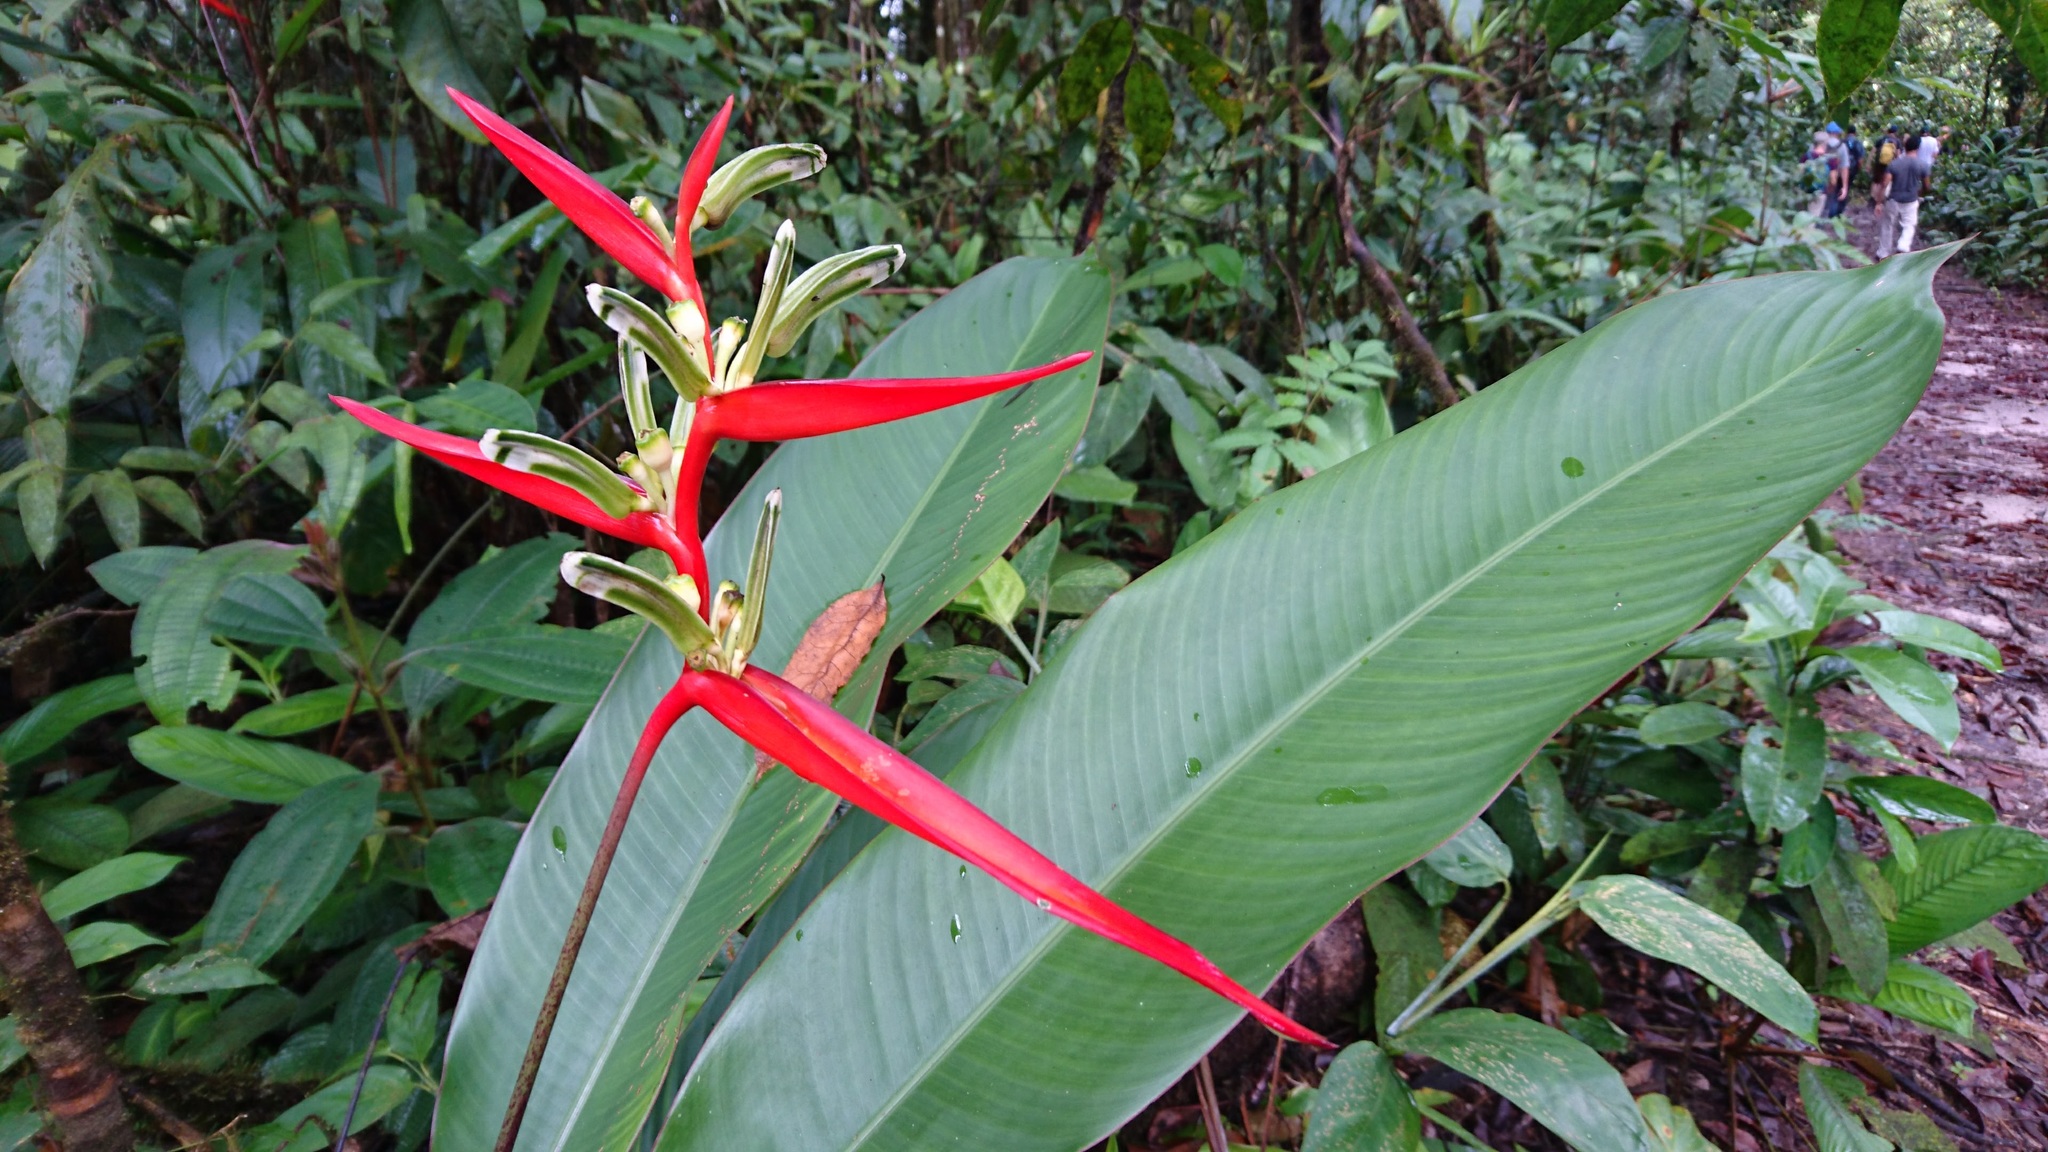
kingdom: Plantae
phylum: Tracheophyta
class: Liliopsida
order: Zingiberales
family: Heliconiaceae
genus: Heliconia
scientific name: Heliconia acuminata
